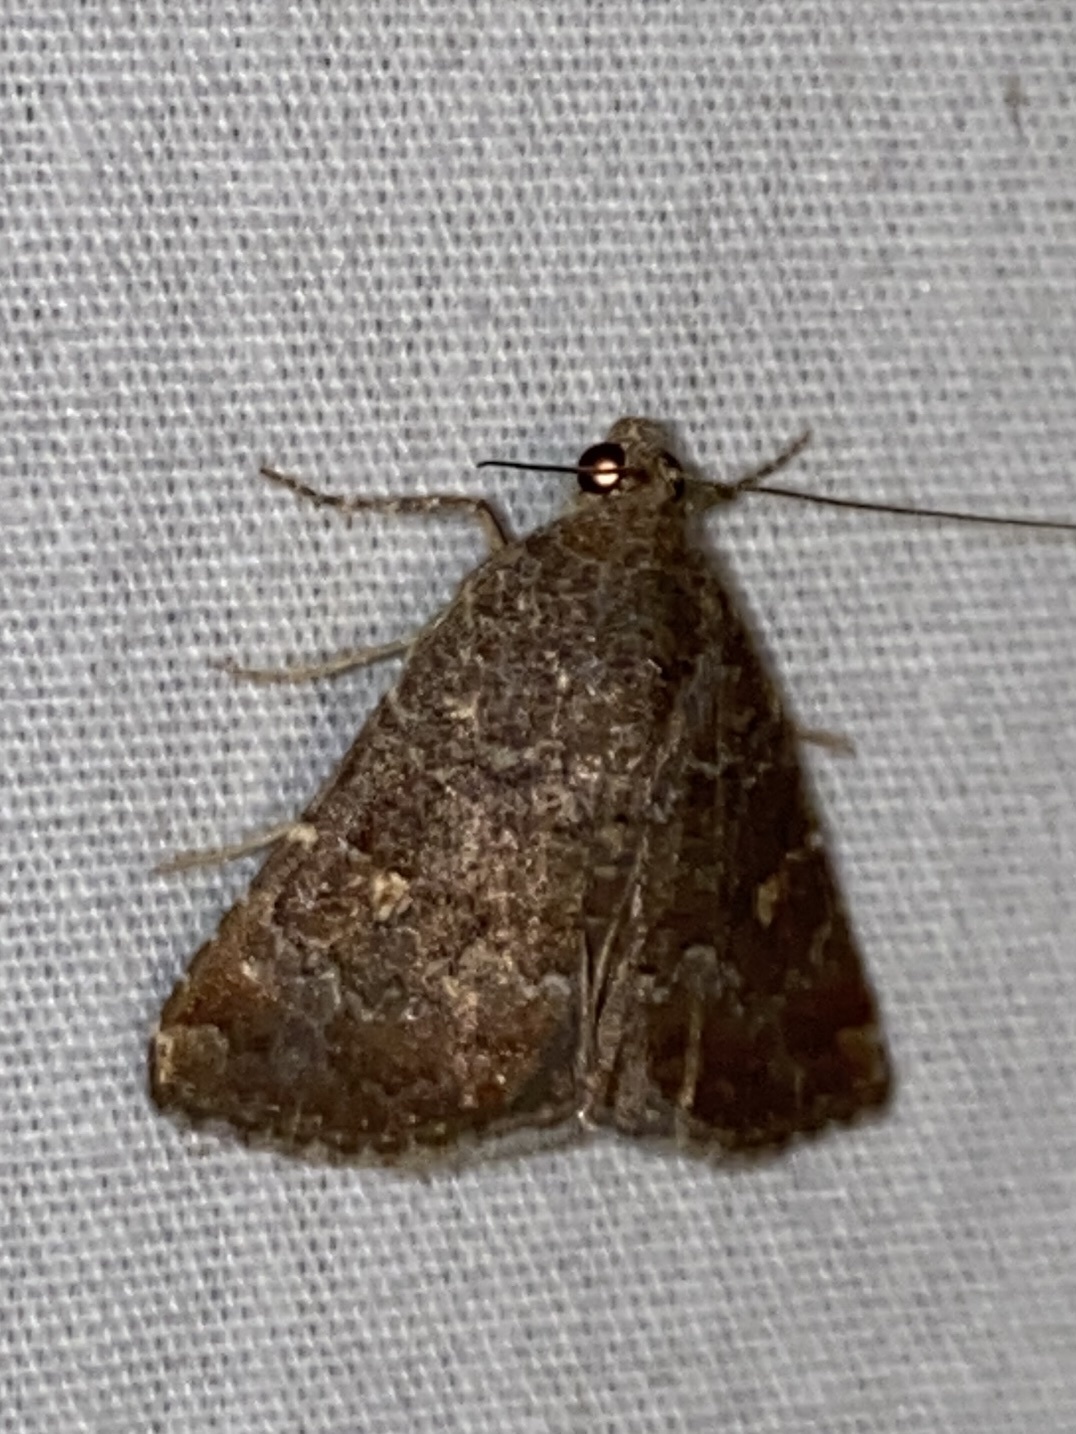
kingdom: Animalia
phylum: Arthropoda
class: Insecta
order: Lepidoptera
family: Noctuidae
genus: Amyna
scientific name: Amyna stricta
